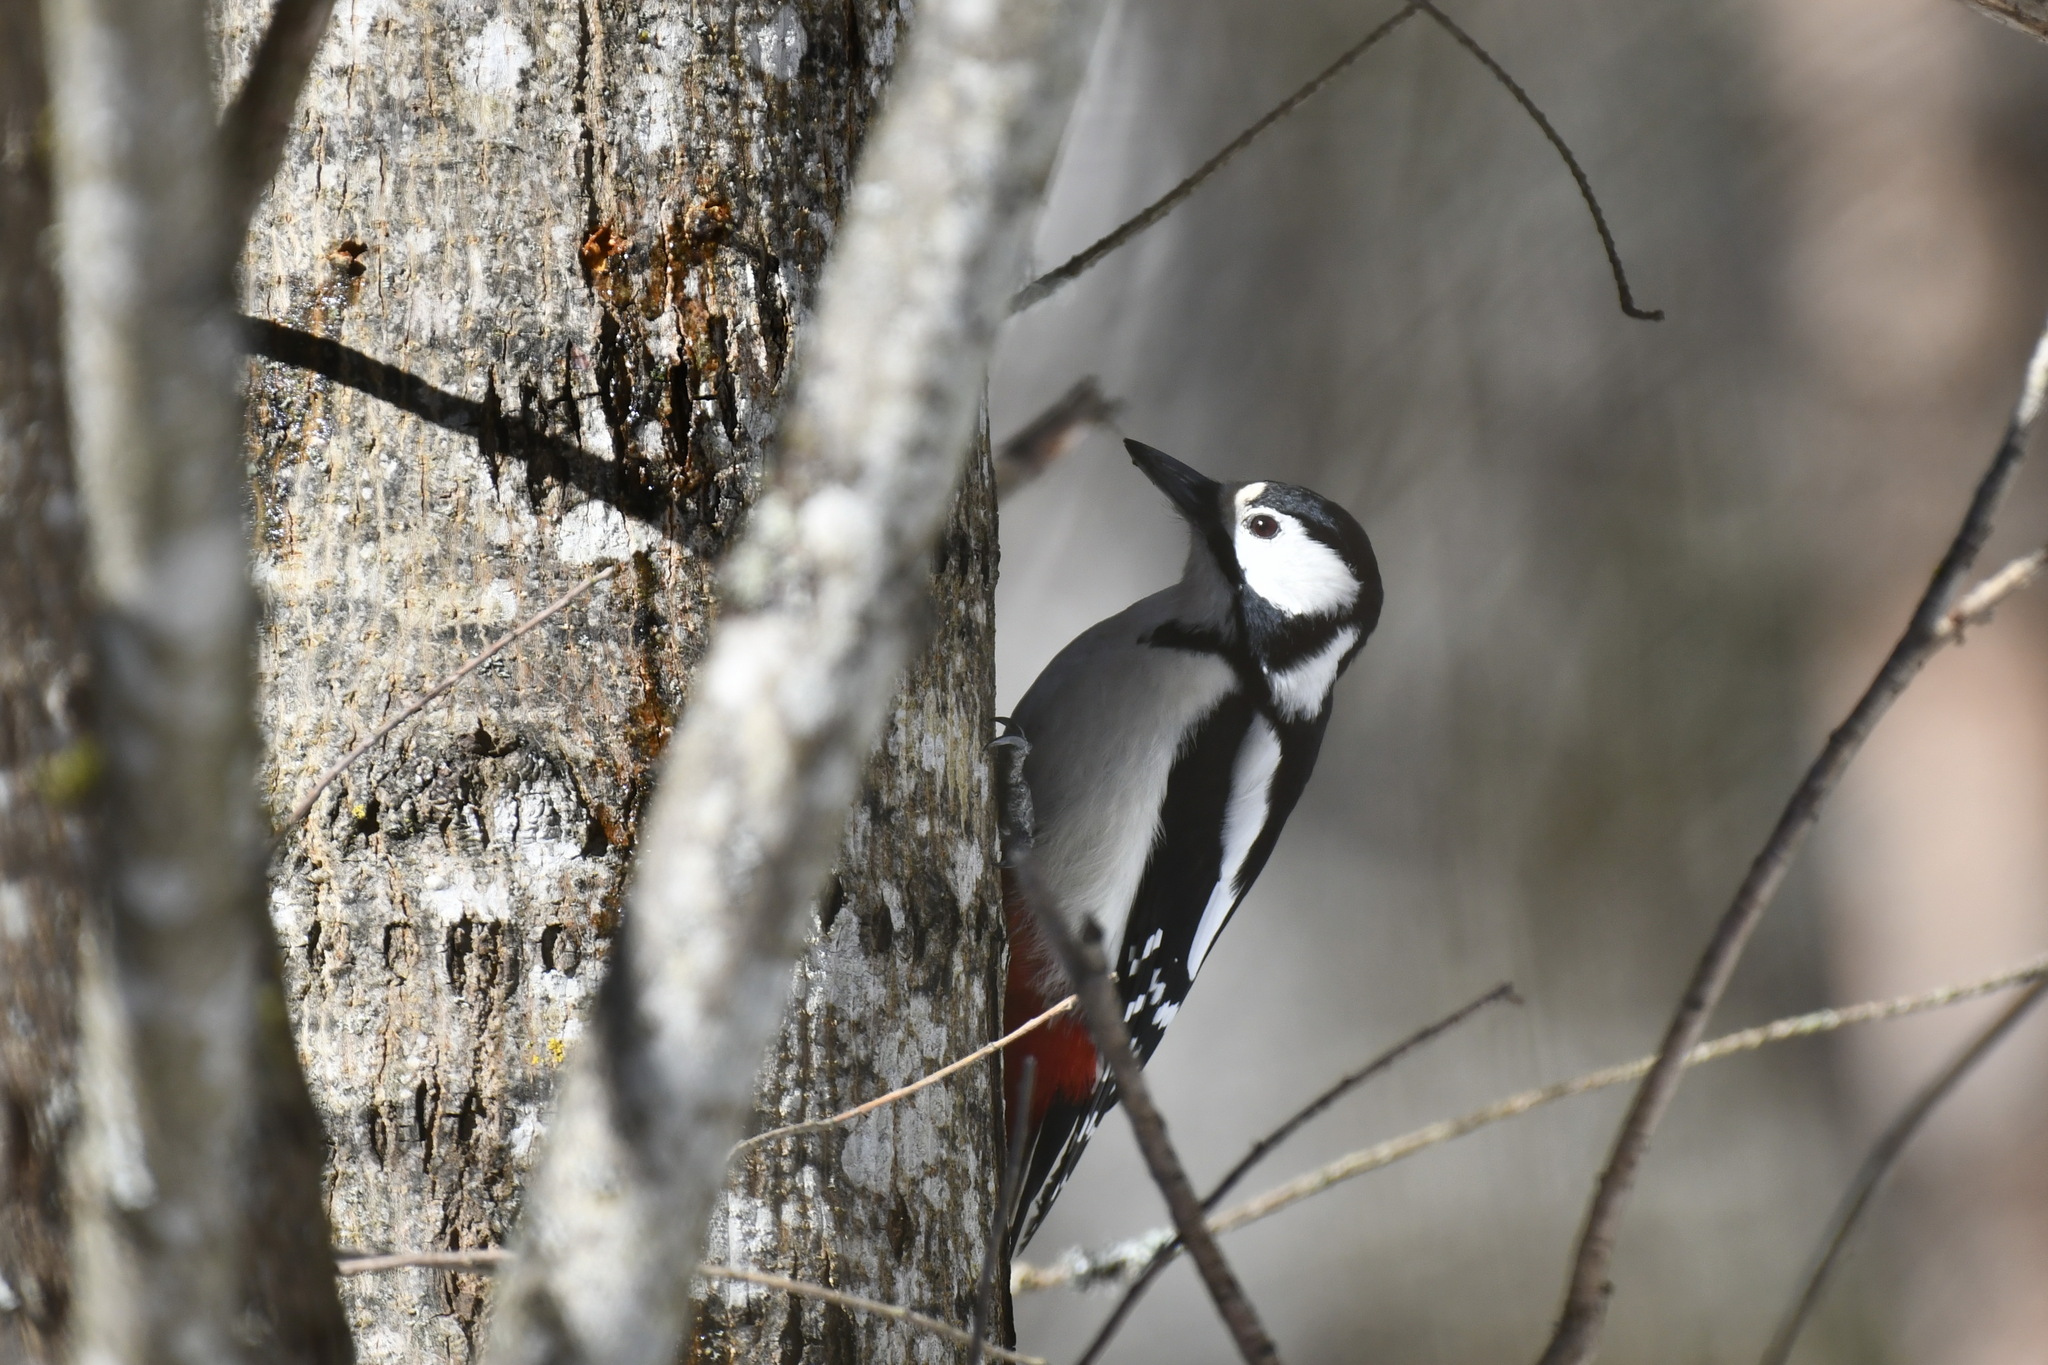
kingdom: Animalia
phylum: Chordata
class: Aves
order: Piciformes
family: Picidae
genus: Dendrocopos
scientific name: Dendrocopos major
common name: Great spotted woodpecker
